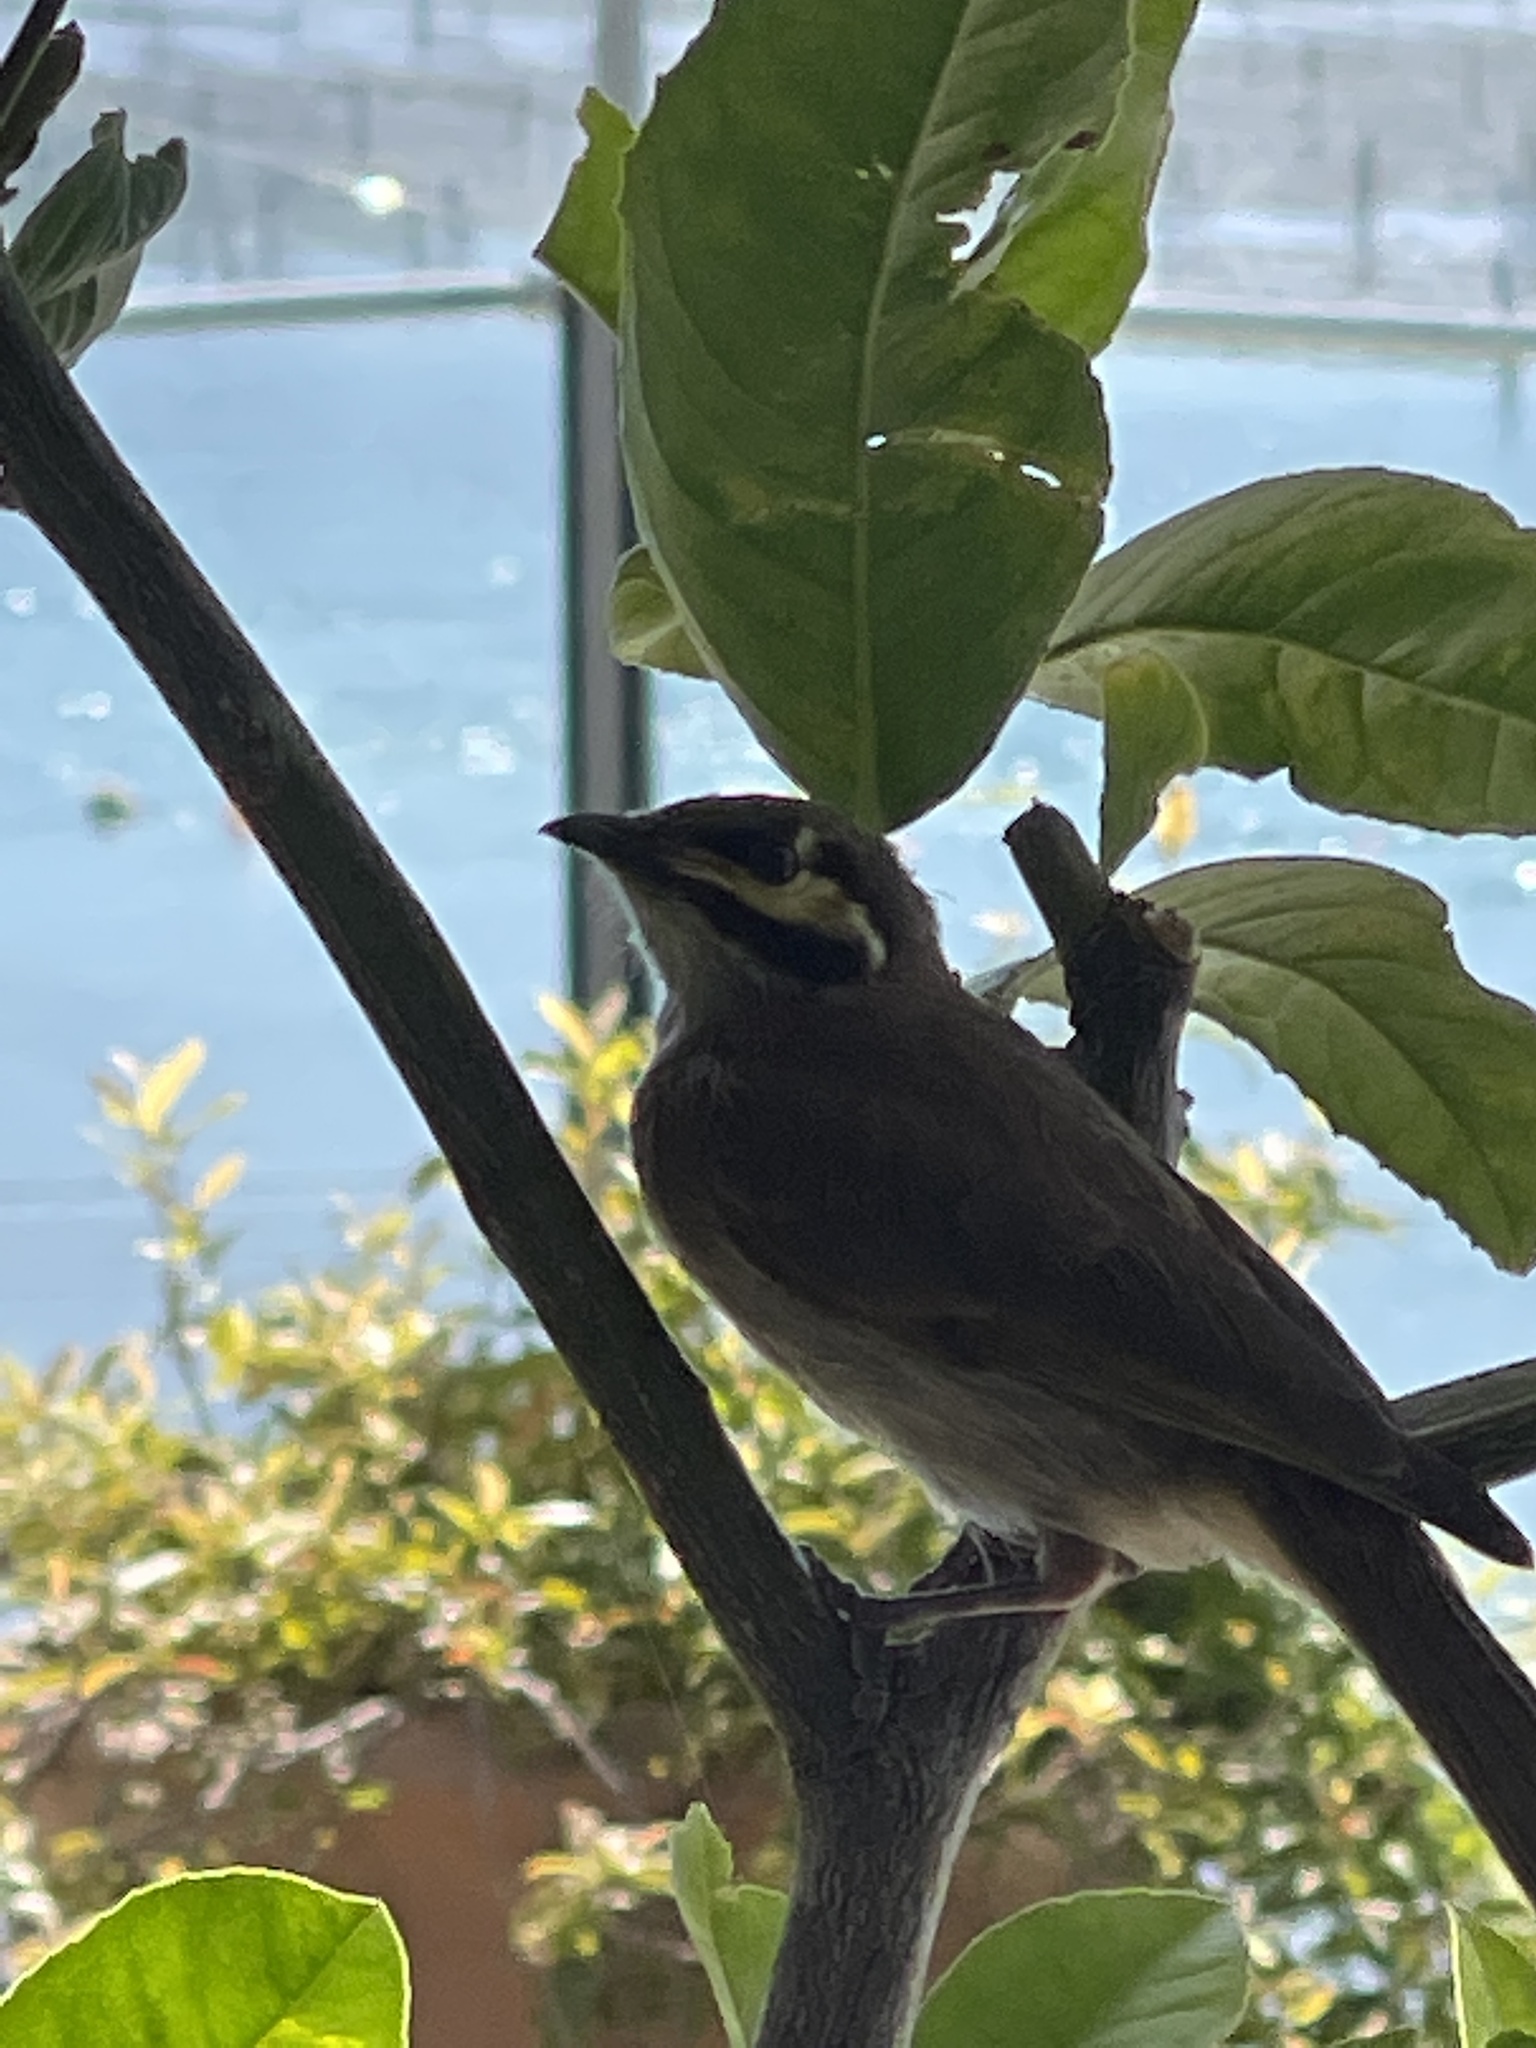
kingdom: Animalia
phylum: Chordata
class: Aves
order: Passeriformes
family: Meliphagidae
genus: Caligavis
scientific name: Caligavis chrysops
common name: Yellow-faced honeyeater
